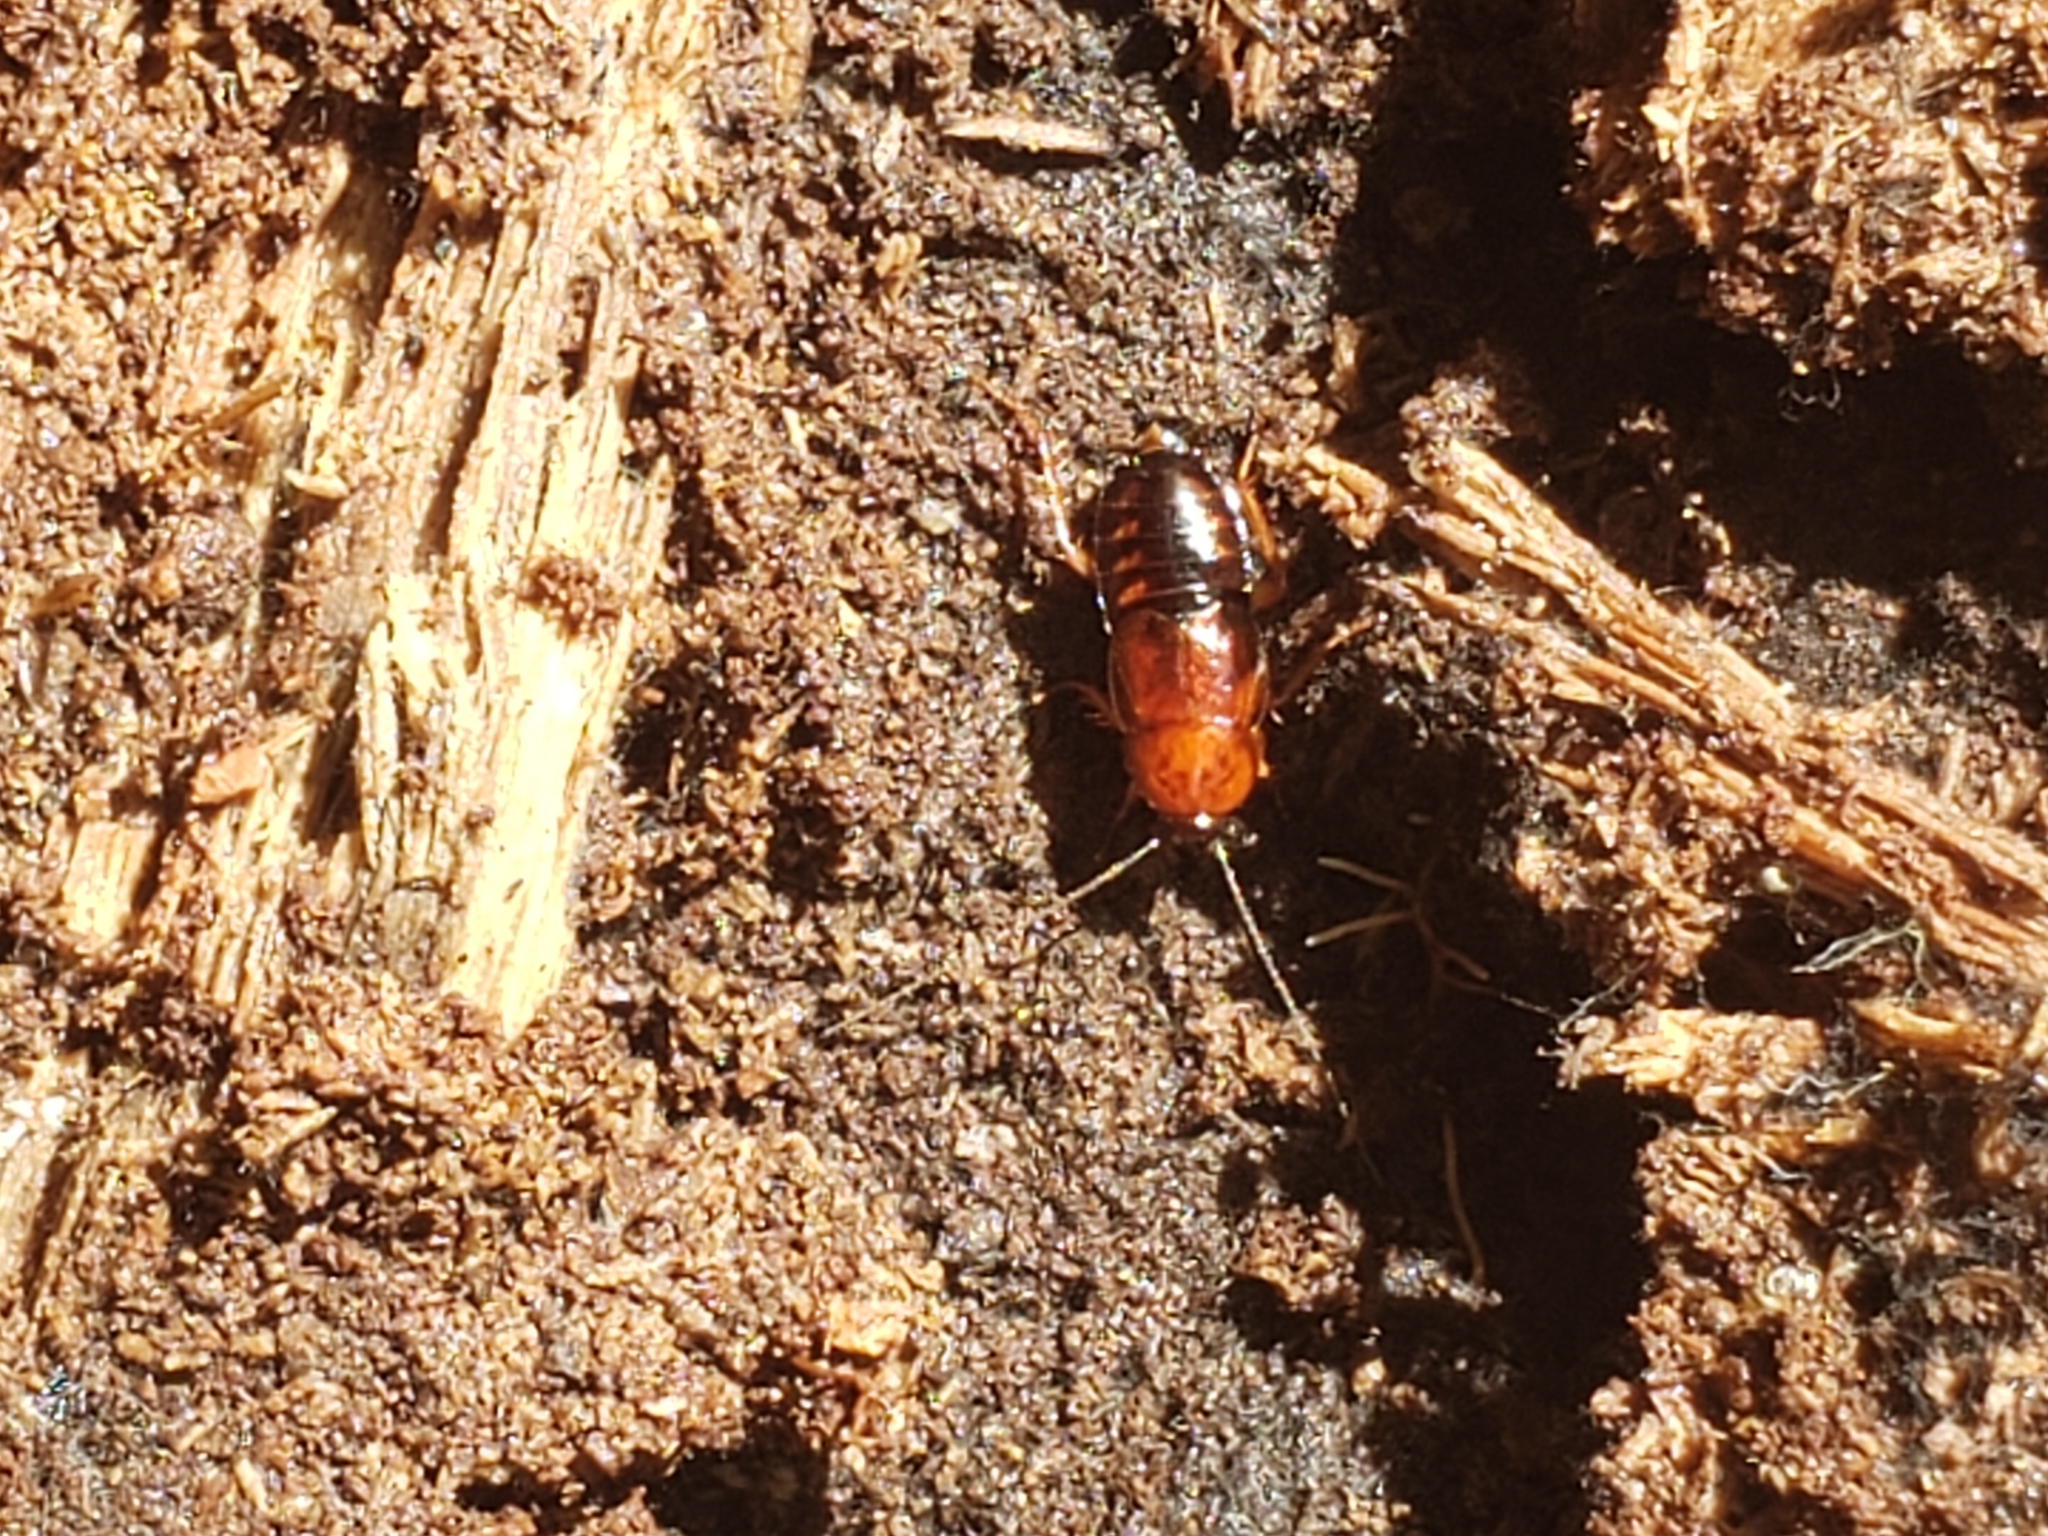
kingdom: Animalia
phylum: Arthropoda
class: Insecta
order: Blattodea
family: Ectobiidae
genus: Parcoblatta
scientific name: Parcoblatta virginica
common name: Virginia wood cockroach
